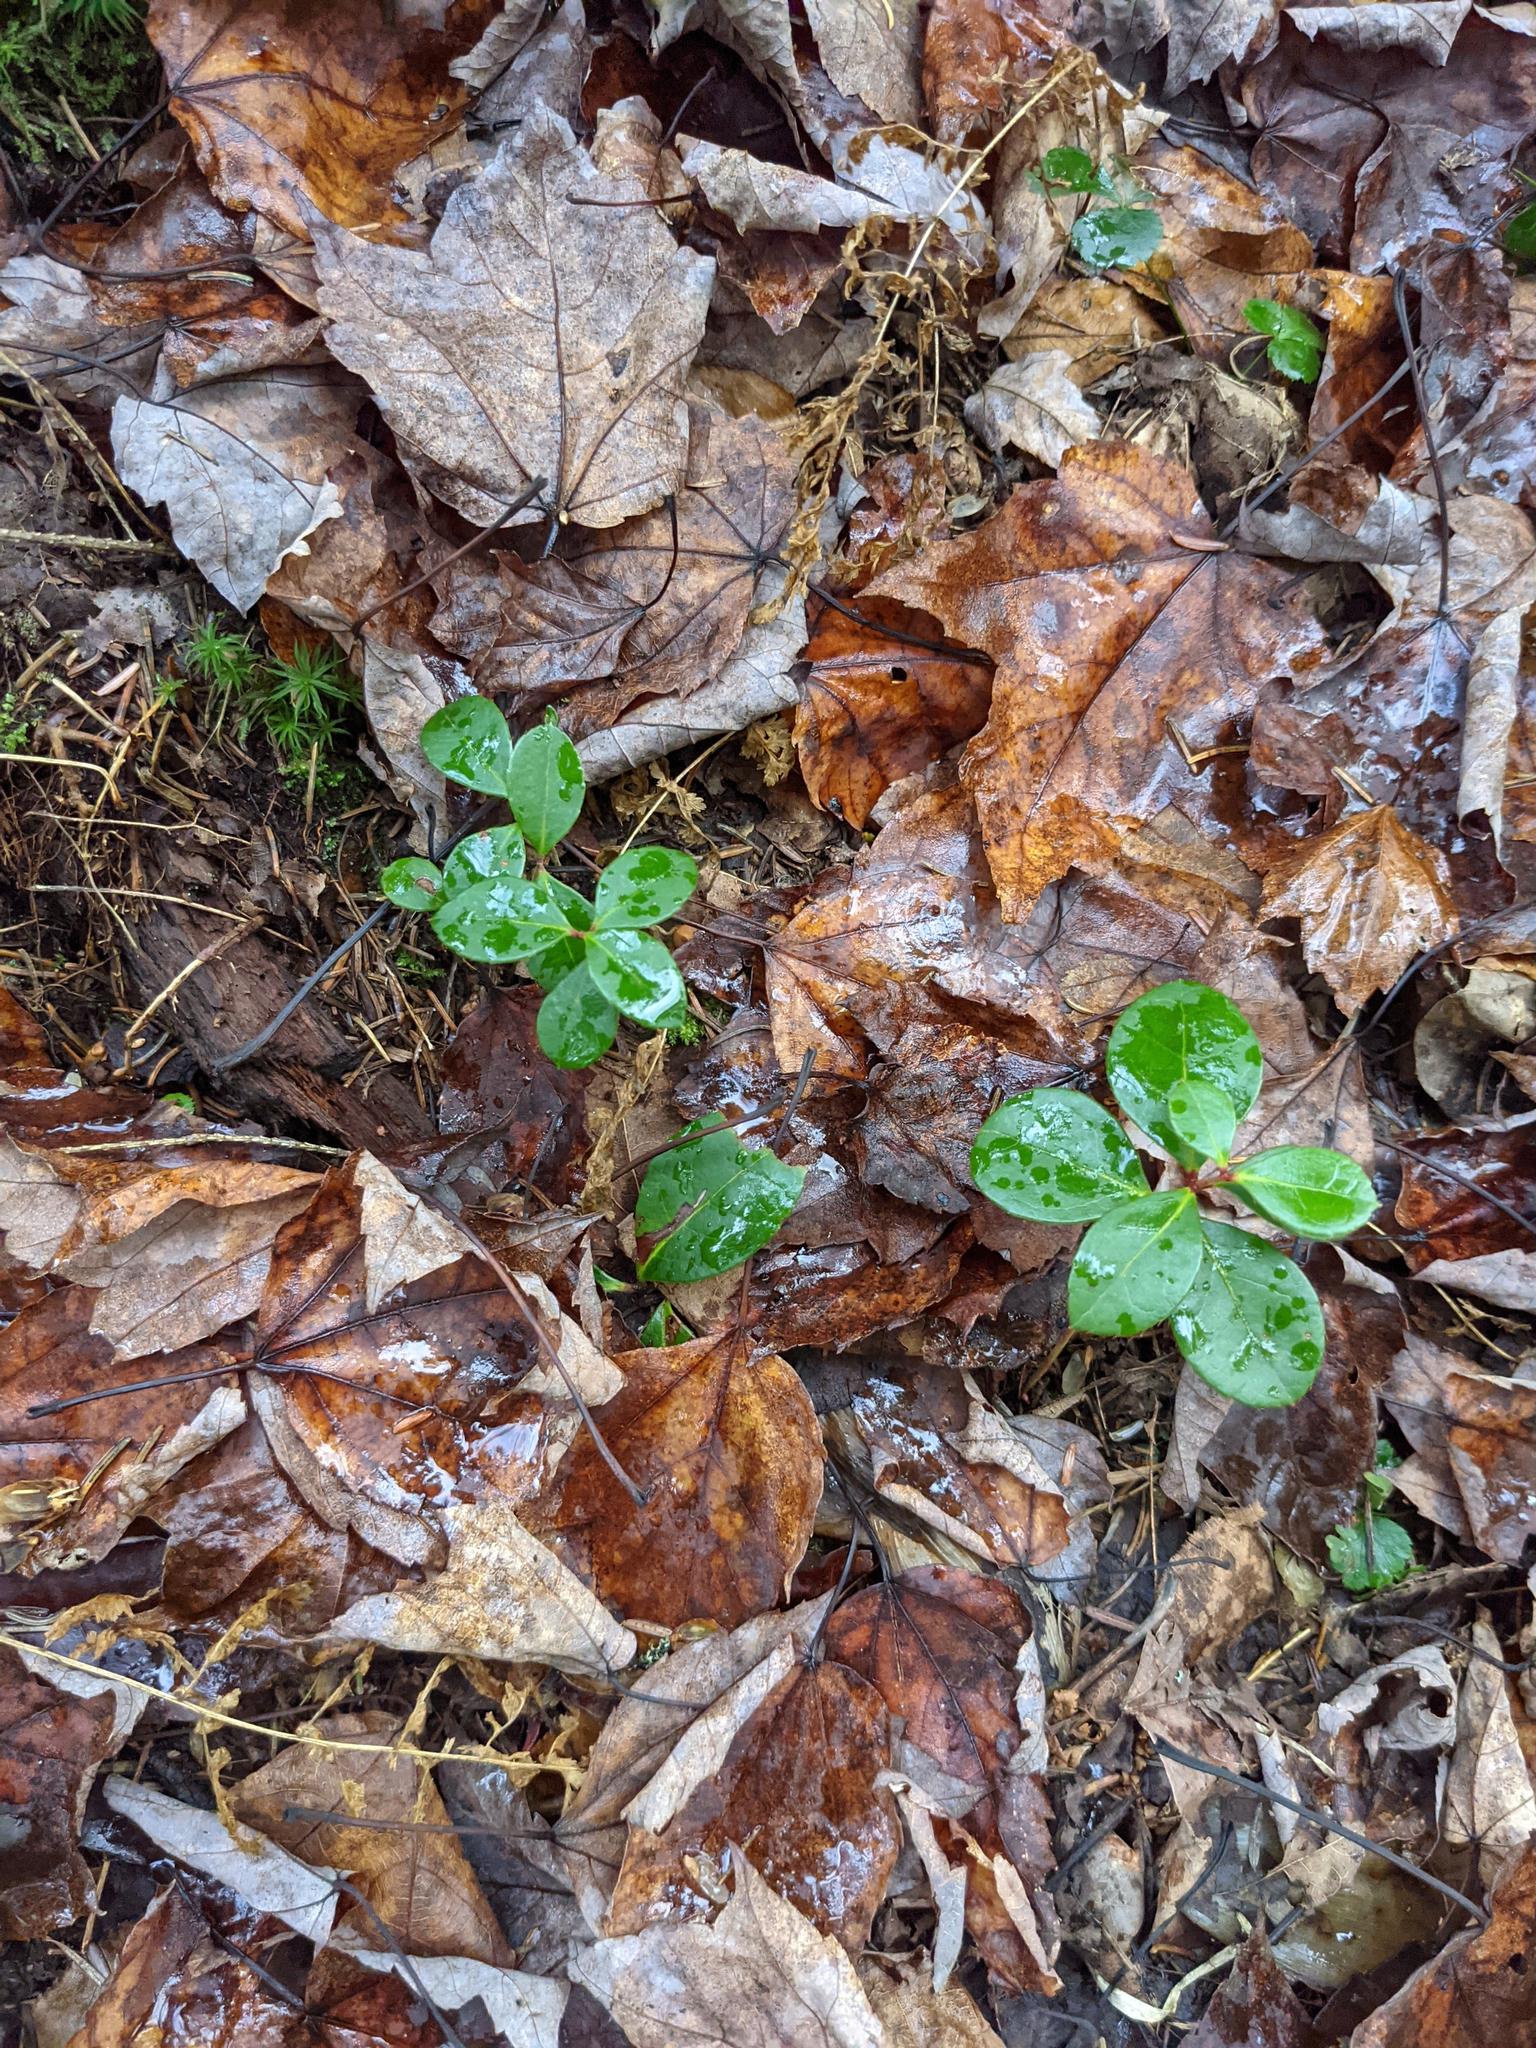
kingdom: Plantae
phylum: Tracheophyta
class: Magnoliopsida
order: Ericales
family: Ericaceae
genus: Gaultheria
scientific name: Gaultheria procumbens
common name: Checkerberry
